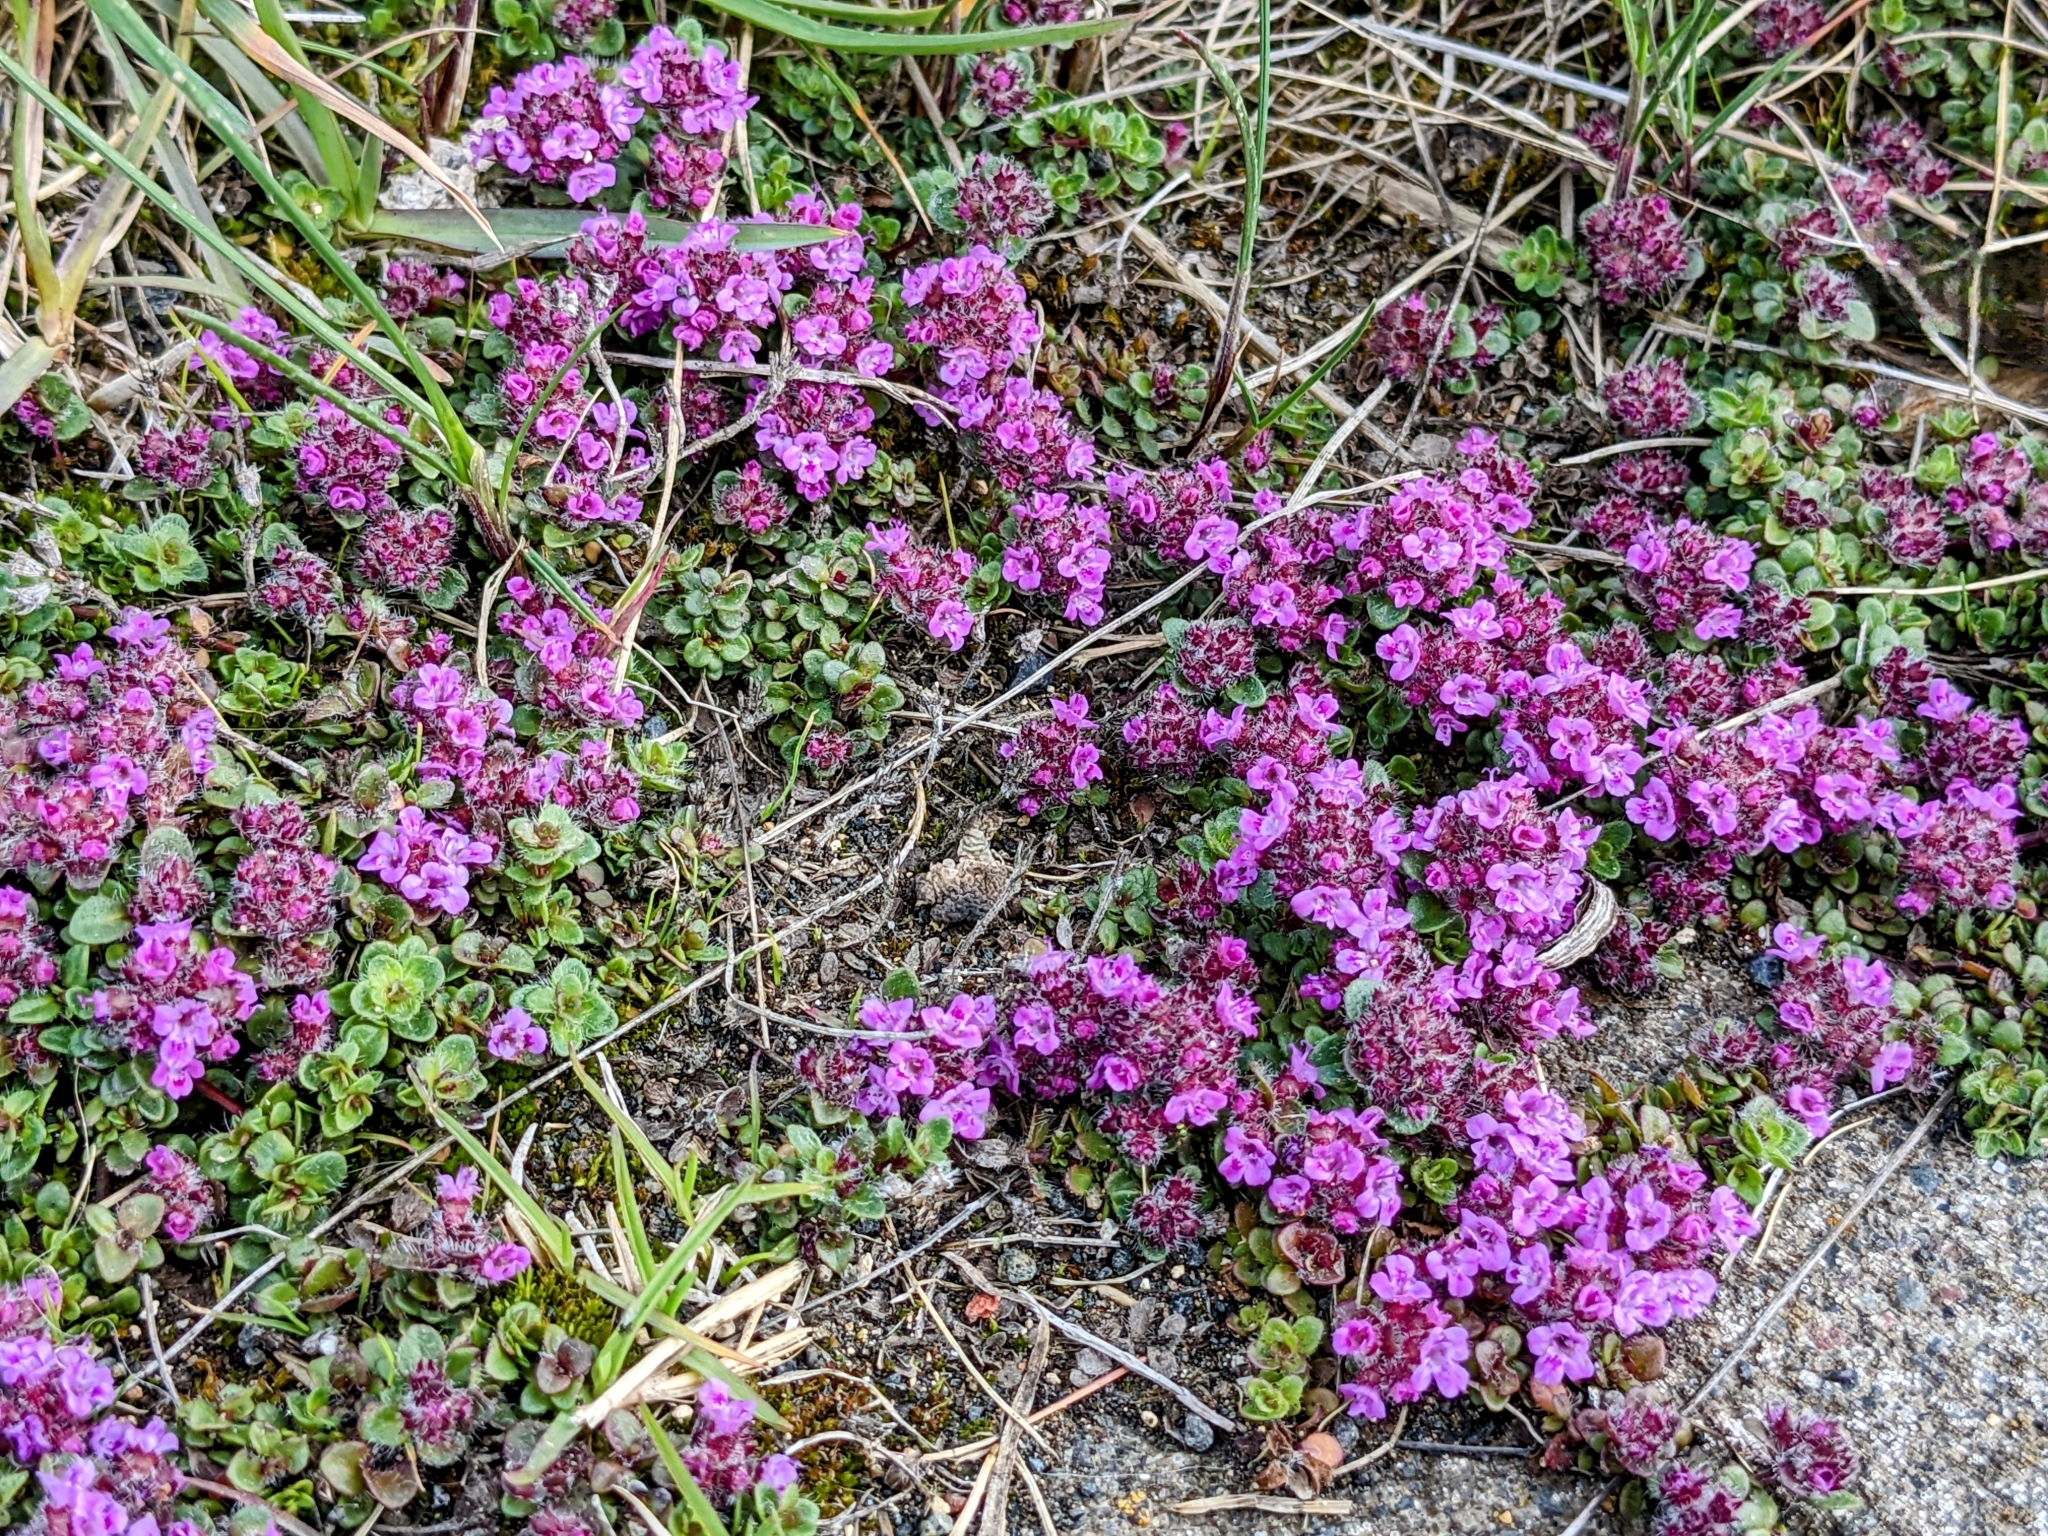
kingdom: Plantae
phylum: Tracheophyta
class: Magnoliopsida
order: Lamiales
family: Lamiaceae
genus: Thymus
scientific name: Thymus praecox
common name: Wild thyme
